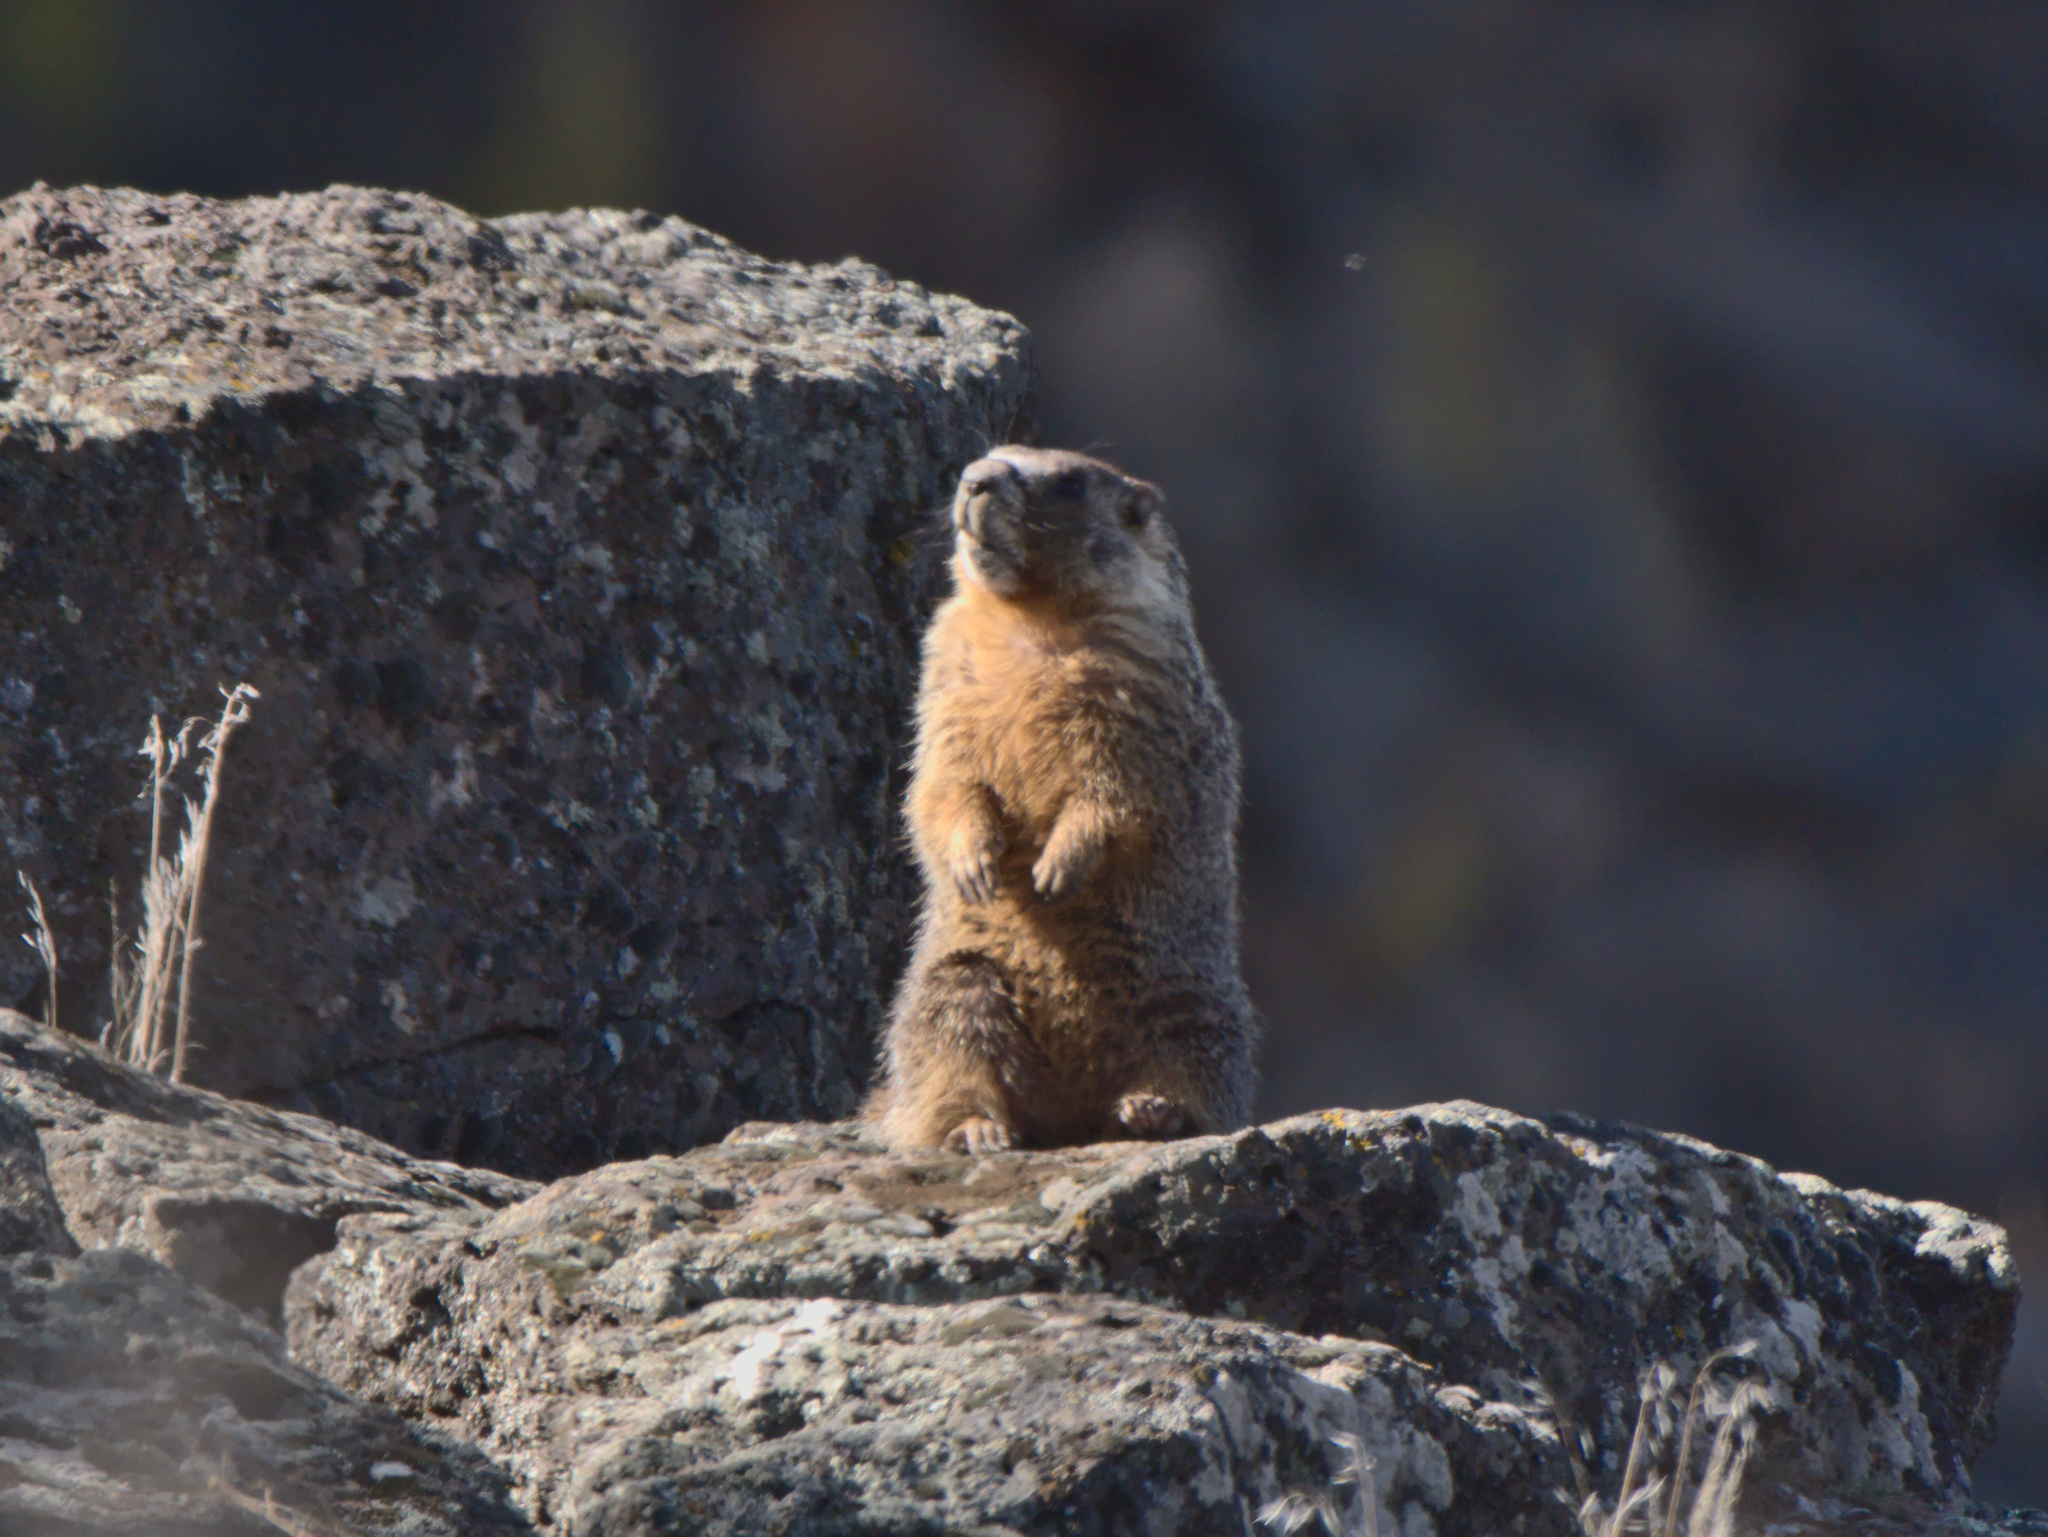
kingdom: Animalia
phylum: Chordata
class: Mammalia
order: Rodentia
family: Sciuridae
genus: Marmota
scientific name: Marmota flaviventris
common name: Yellow-bellied marmot
